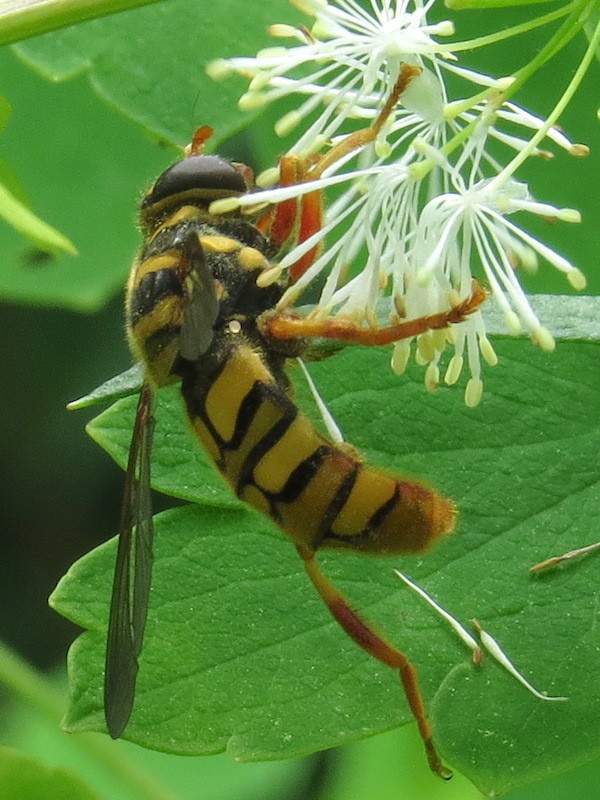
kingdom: Animalia
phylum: Arthropoda
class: Insecta
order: Diptera
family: Syrphidae
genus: Milesia
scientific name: Milesia virginiensis
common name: Virginia giant
